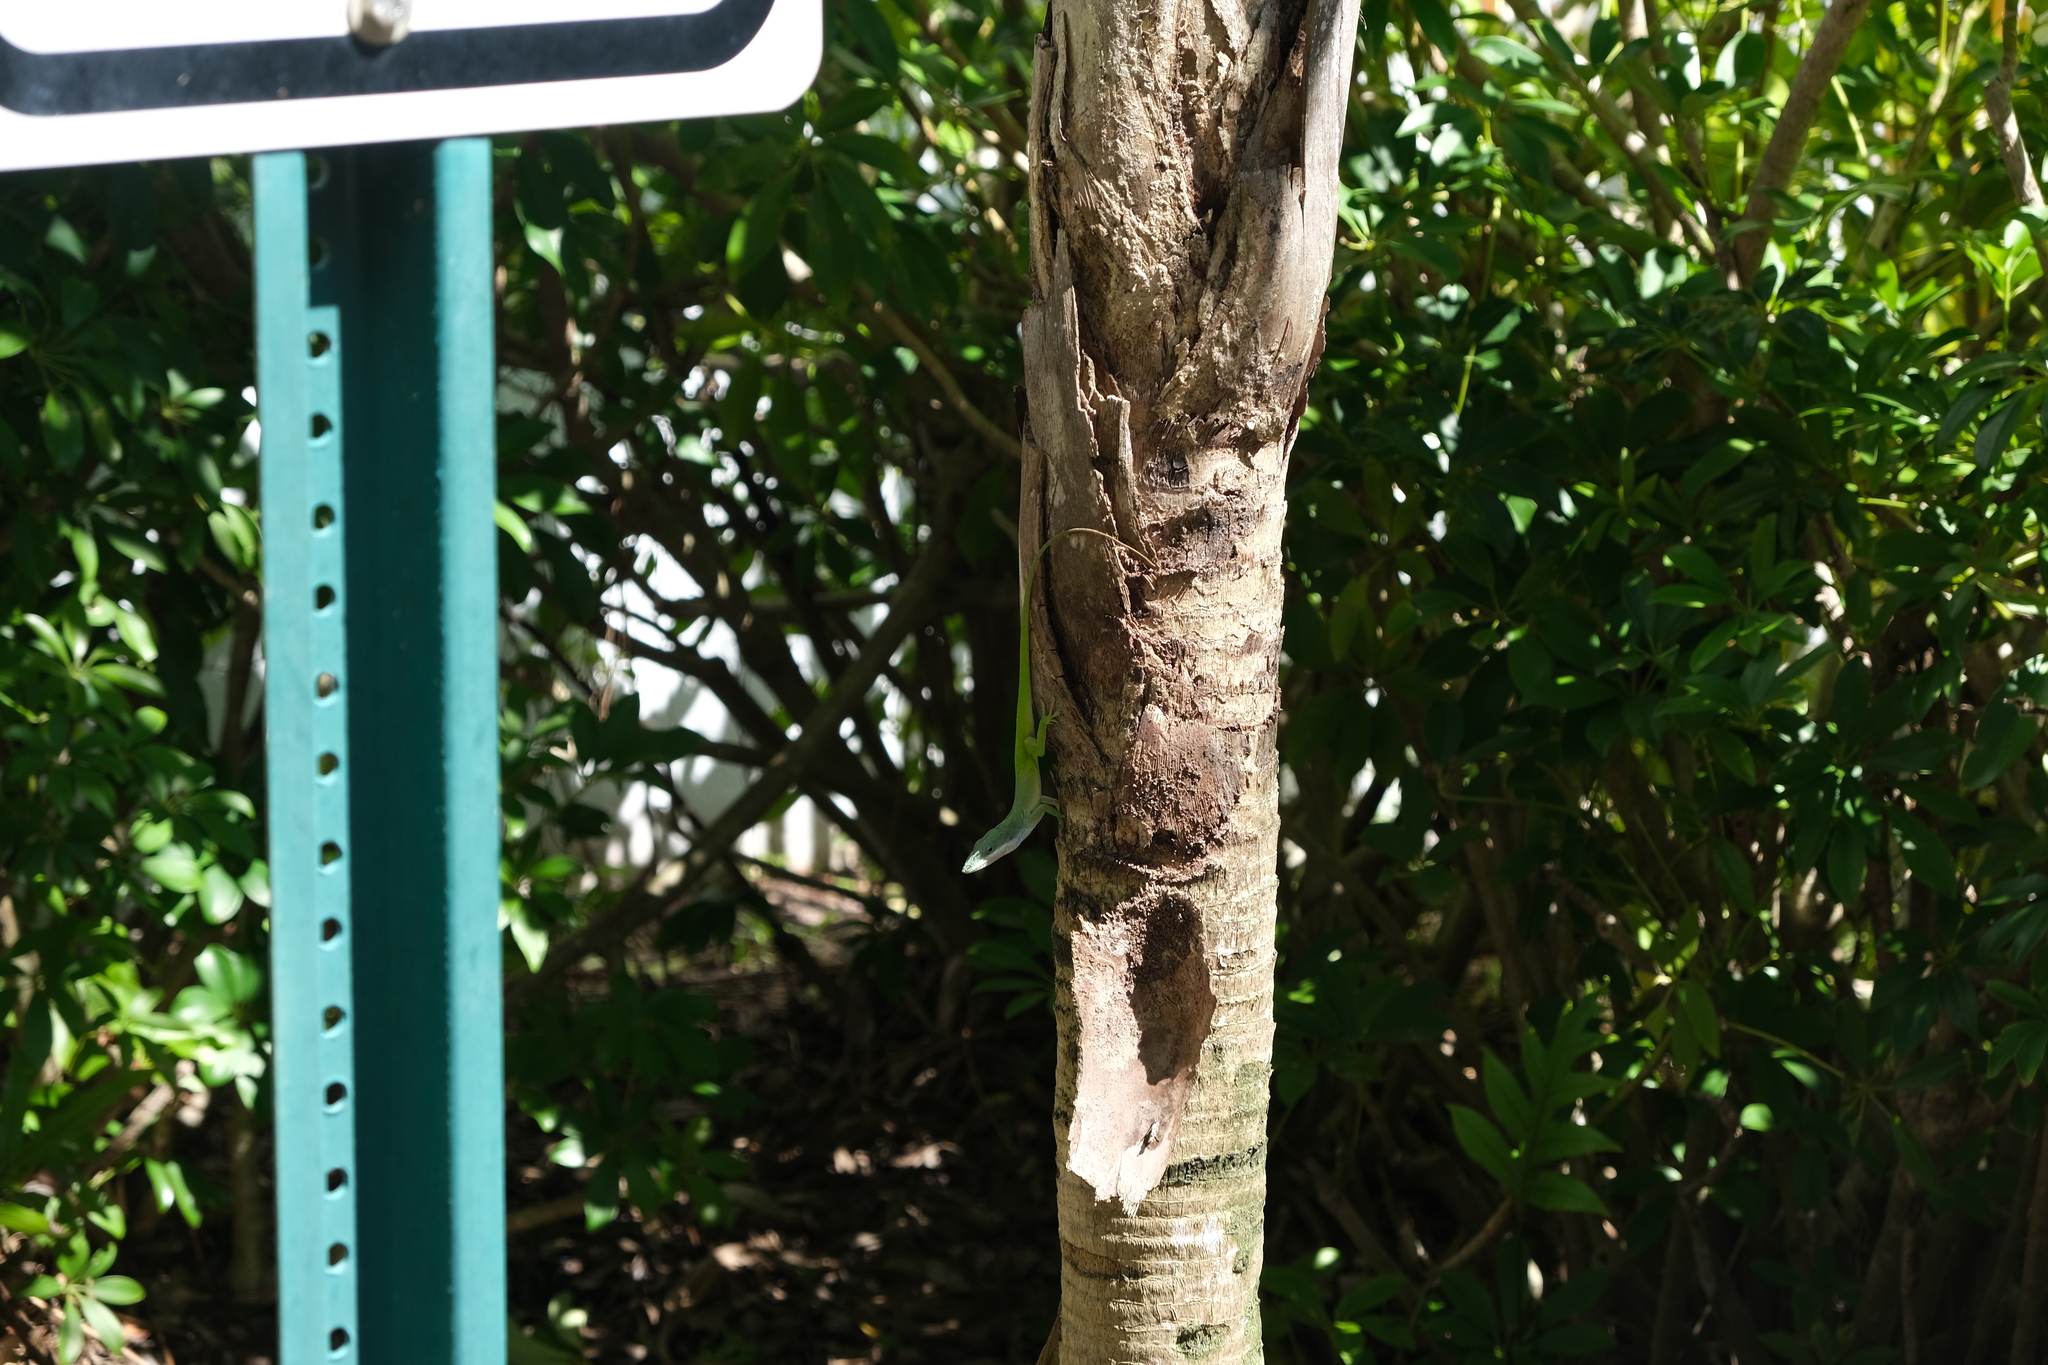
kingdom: Animalia
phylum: Chordata
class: Squamata
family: Dactyloidae
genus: Anolis
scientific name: Anolis allisoni
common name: Allison's anole
